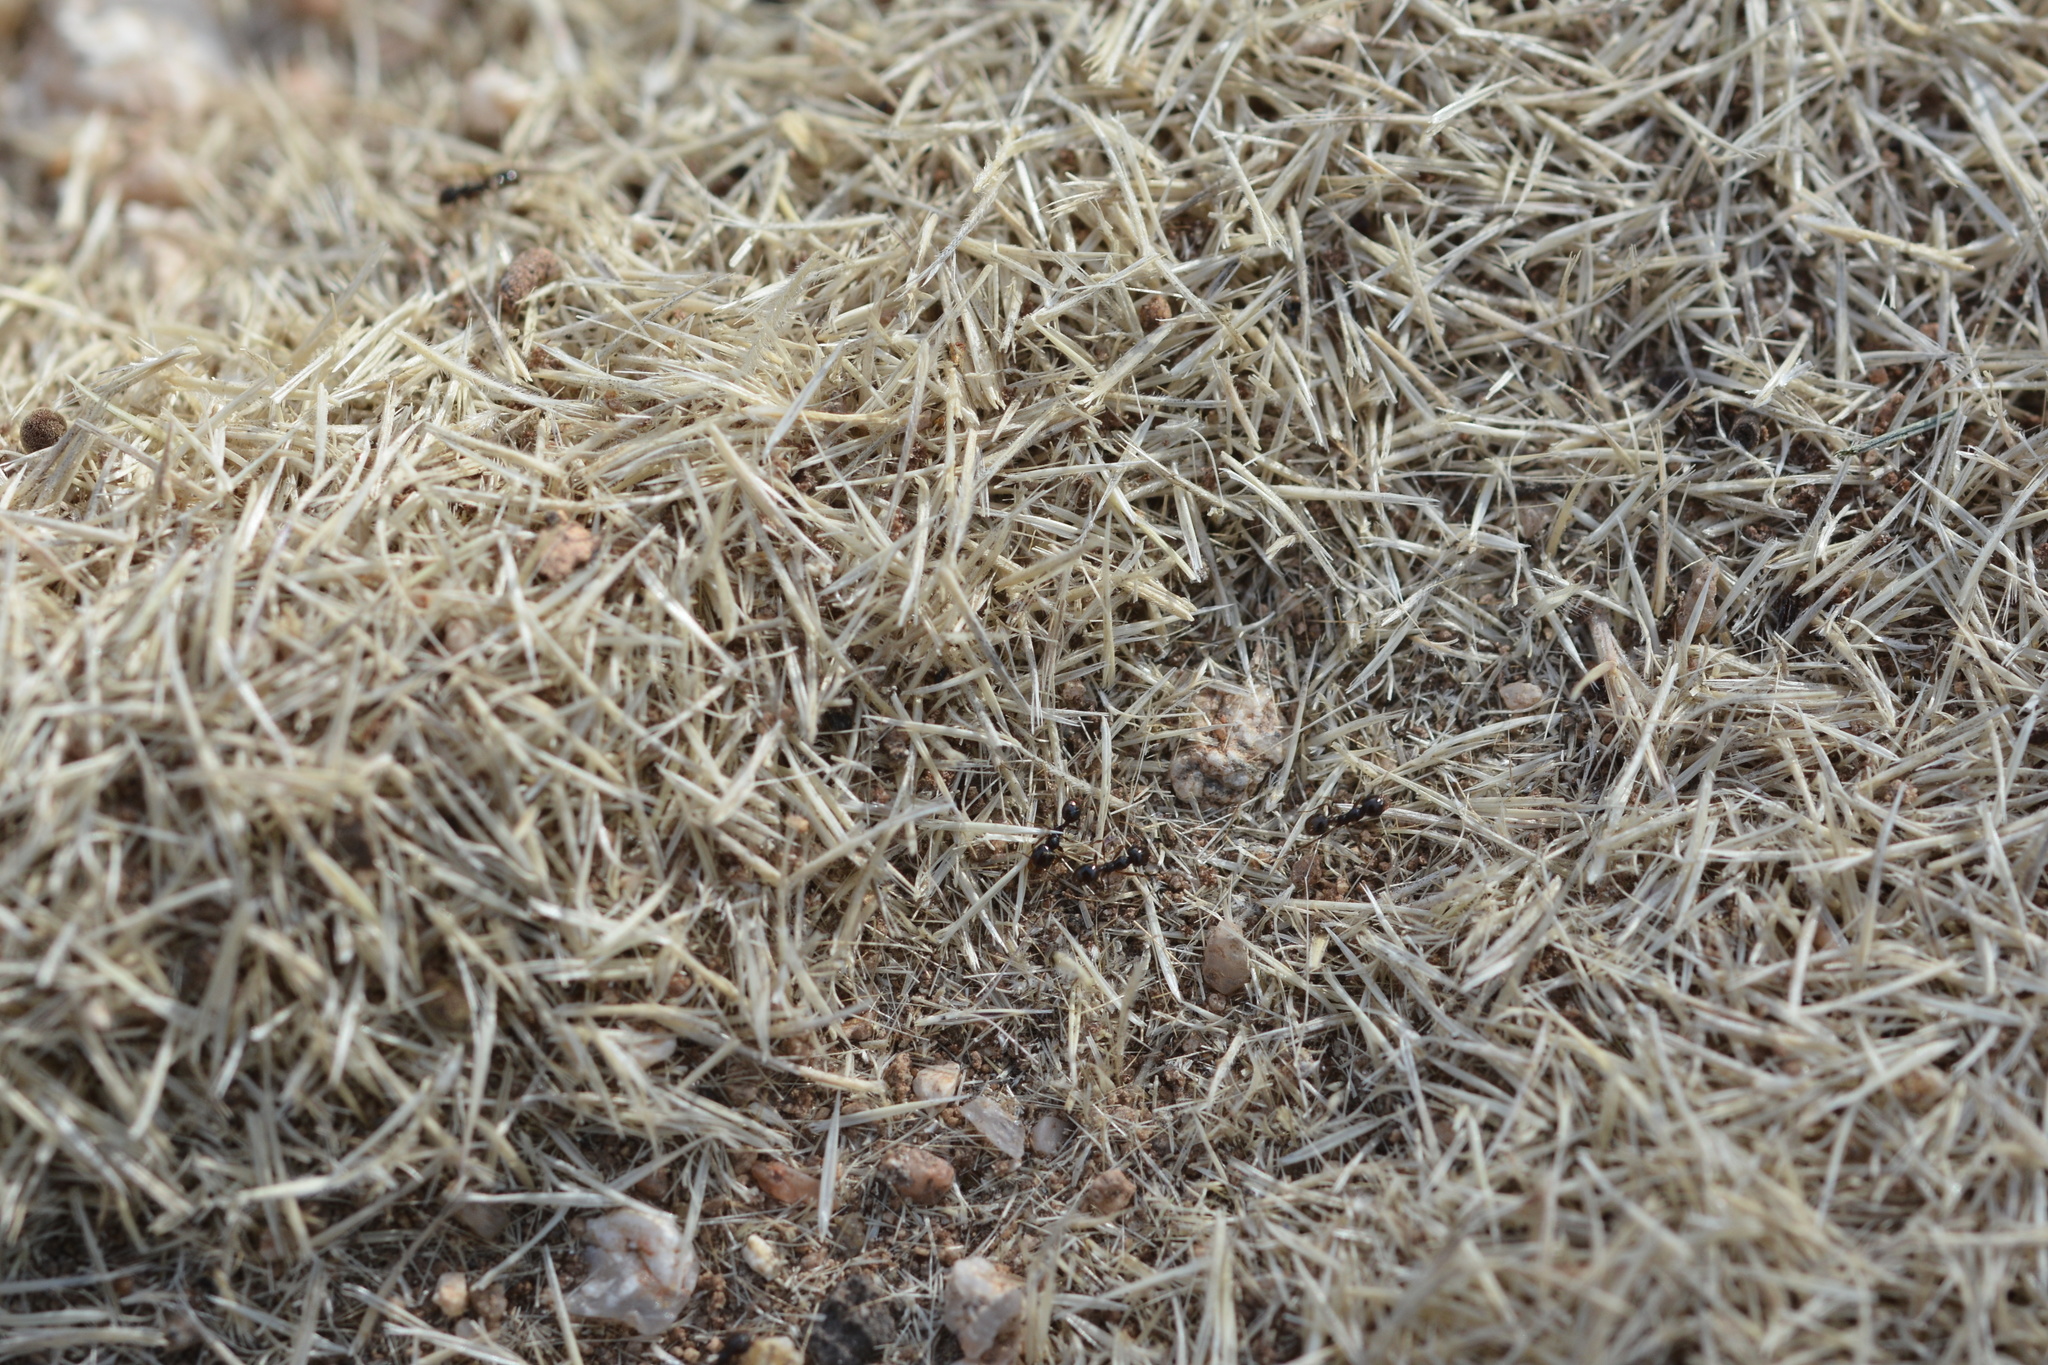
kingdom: Animalia
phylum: Arthropoda
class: Insecta
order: Hymenoptera
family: Formicidae
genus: Pheidole
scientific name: Pheidole xerophila
